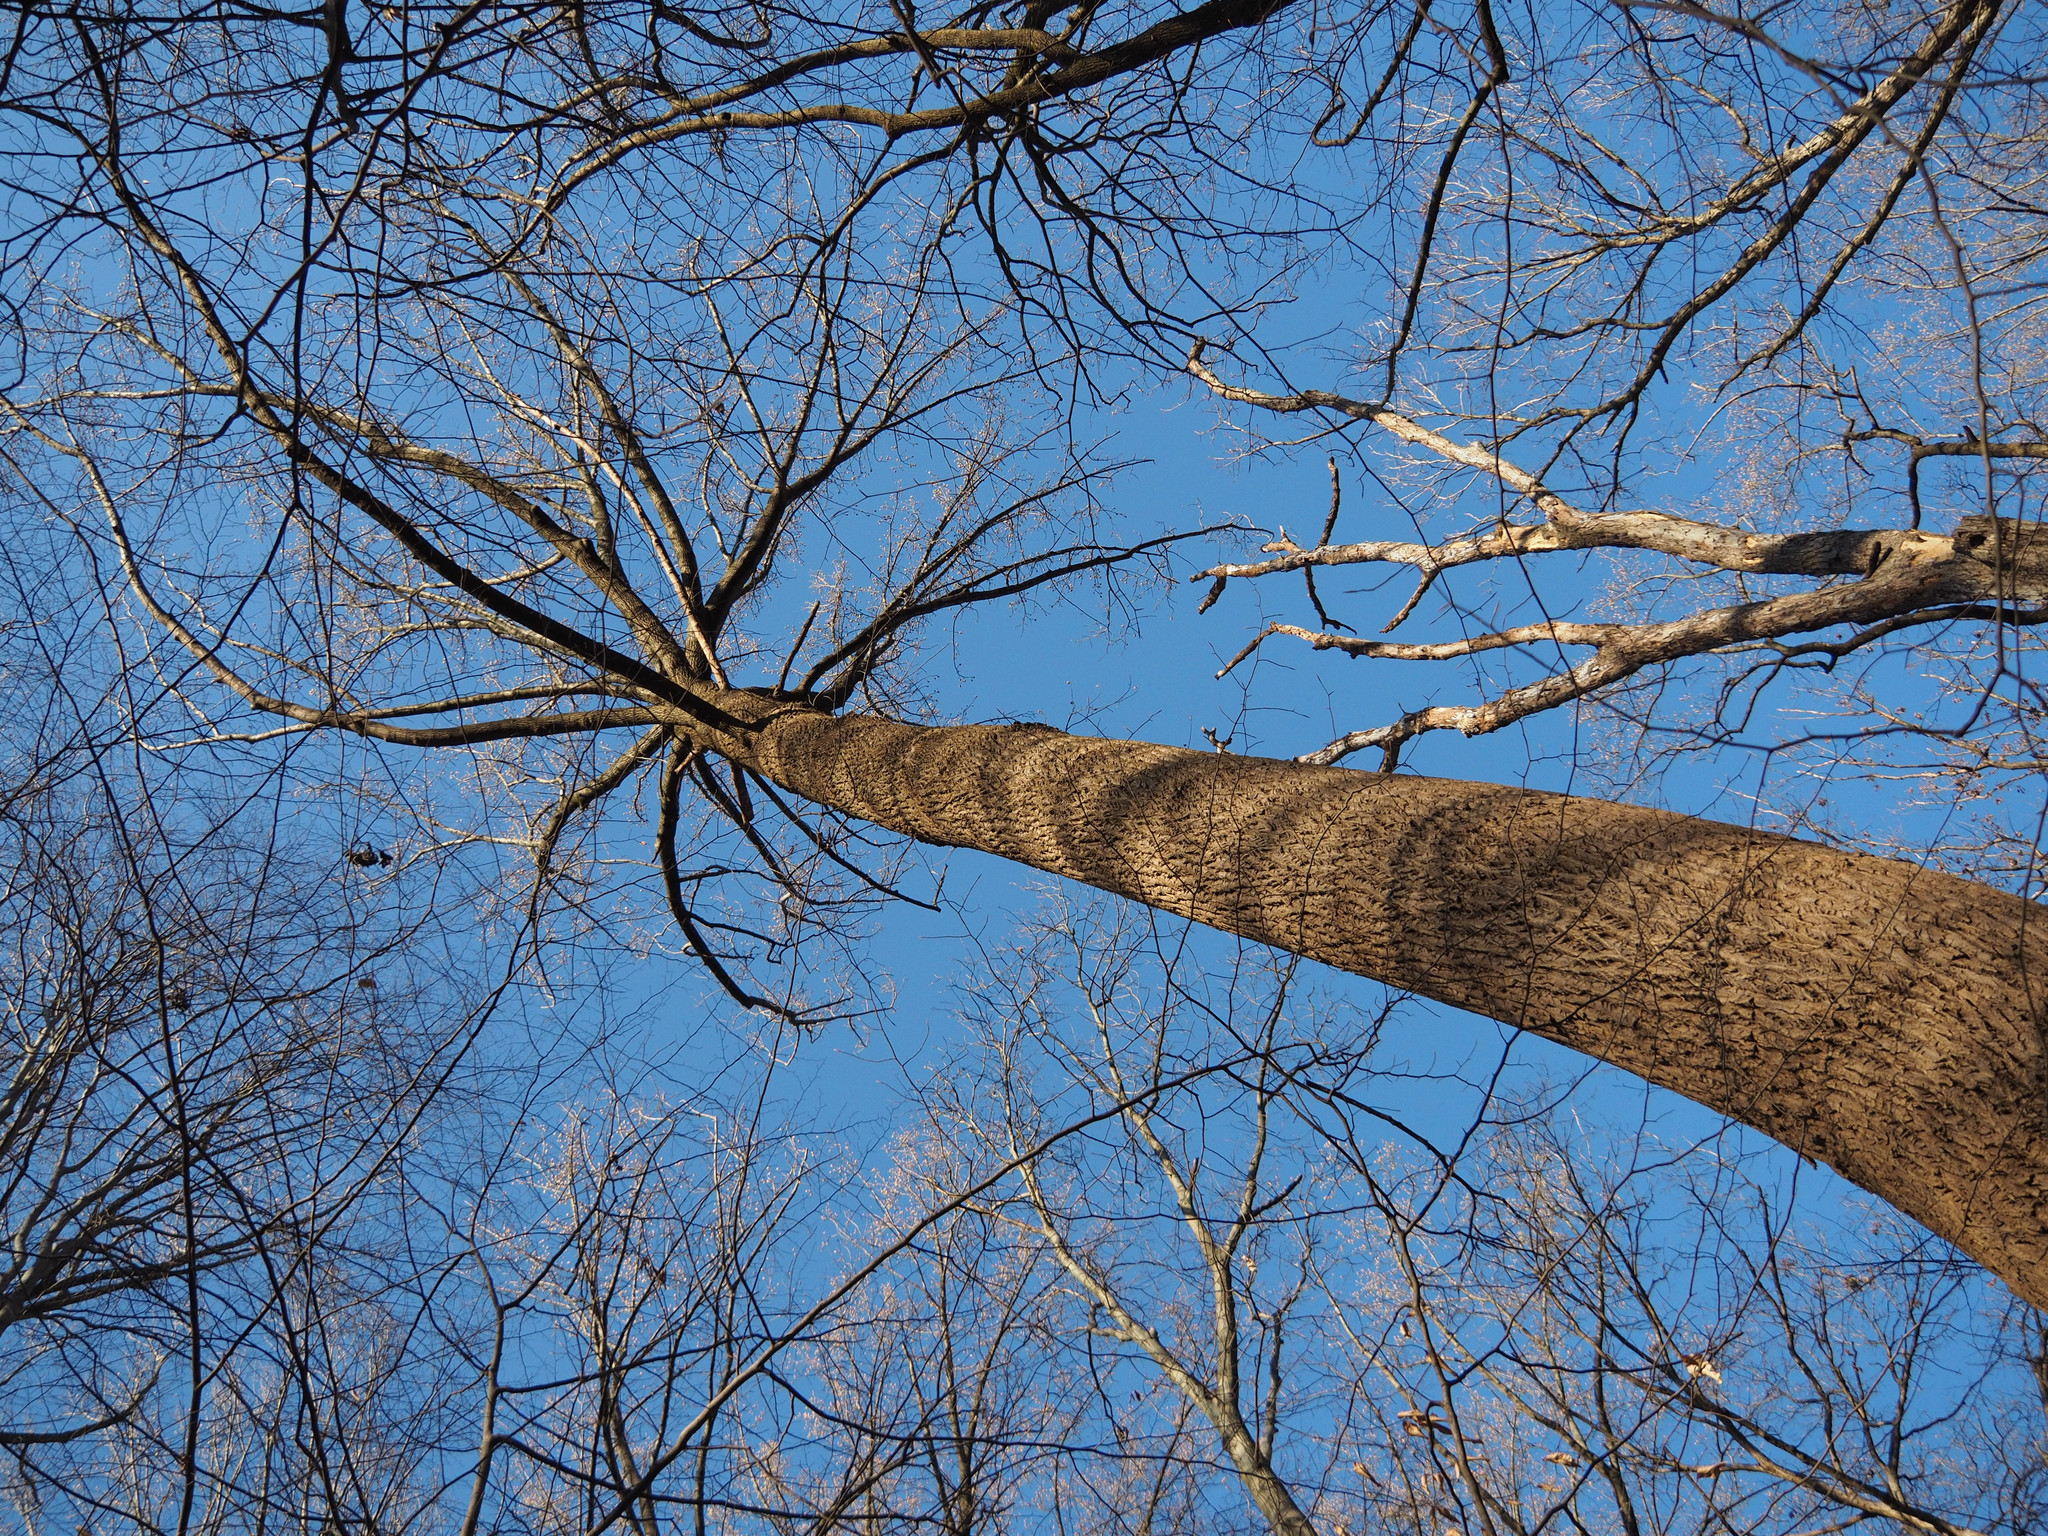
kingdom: Plantae
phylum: Tracheophyta
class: Magnoliopsida
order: Magnoliales
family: Magnoliaceae
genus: Liriodendron
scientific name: Liriodendron tulipifera
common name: Tulip tree
